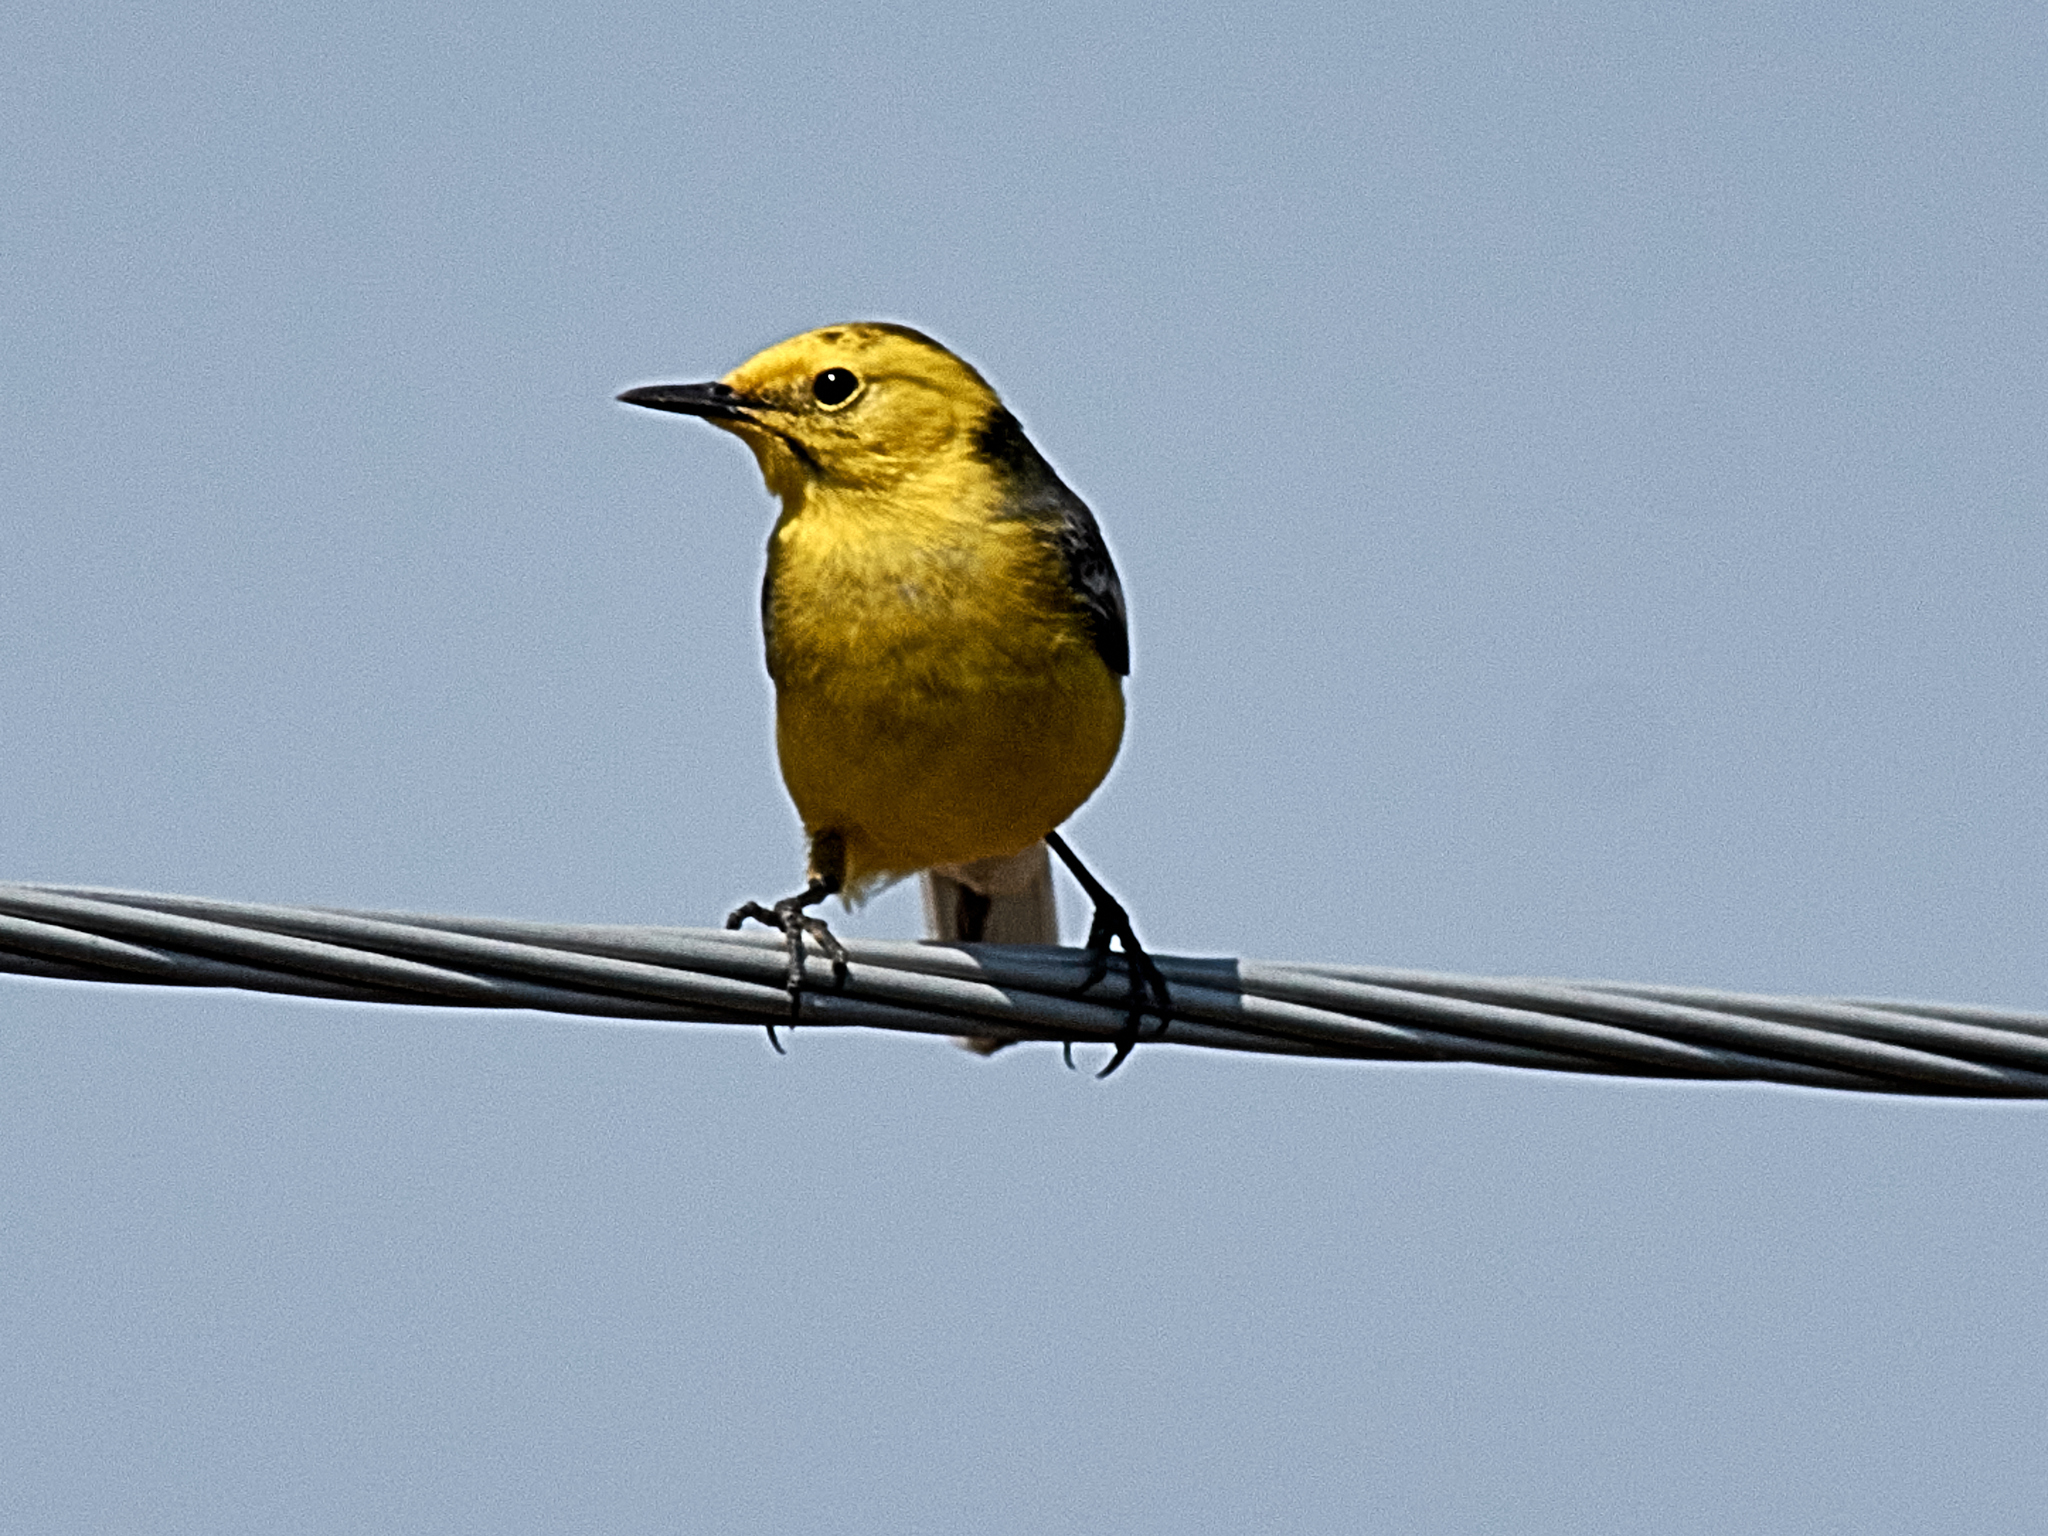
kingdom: Animalia
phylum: Chordata
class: Aves
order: Passeriformes
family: Motacillidae
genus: Motacilla
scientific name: Motacilla citreola
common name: Citrine wagtail
